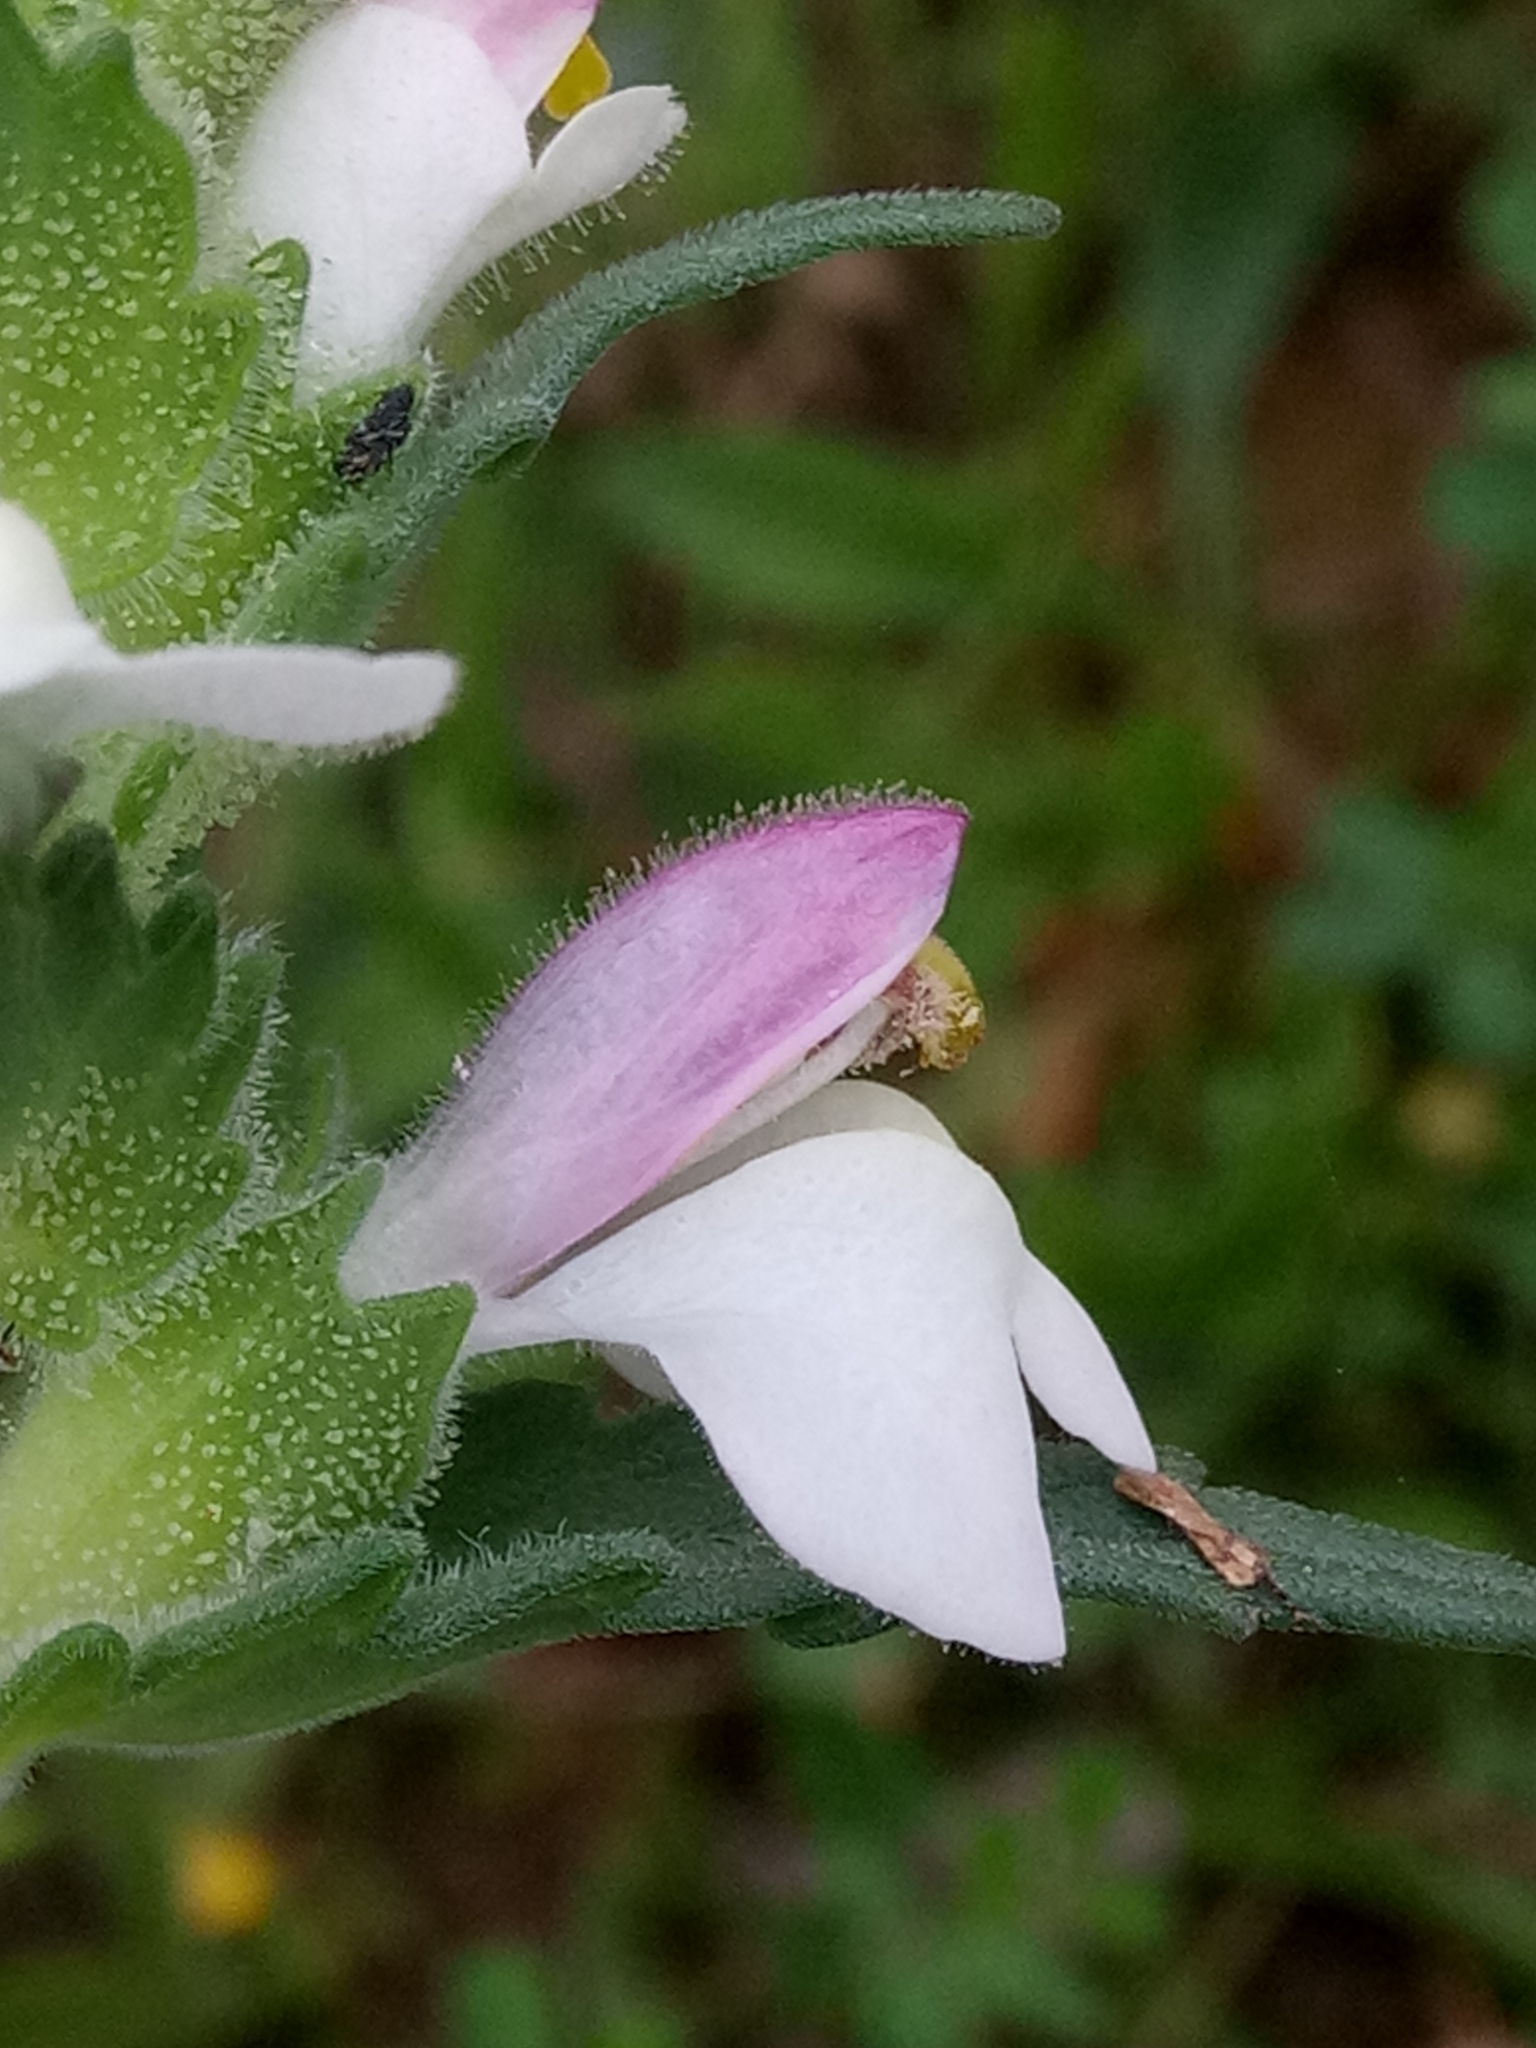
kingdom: Plantae
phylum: Tracheophyta
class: Magnoliopsida
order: Lamiales
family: Orobanchaceae
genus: Bellardia
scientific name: Bellardia trixago
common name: Mediterranean lineseed
